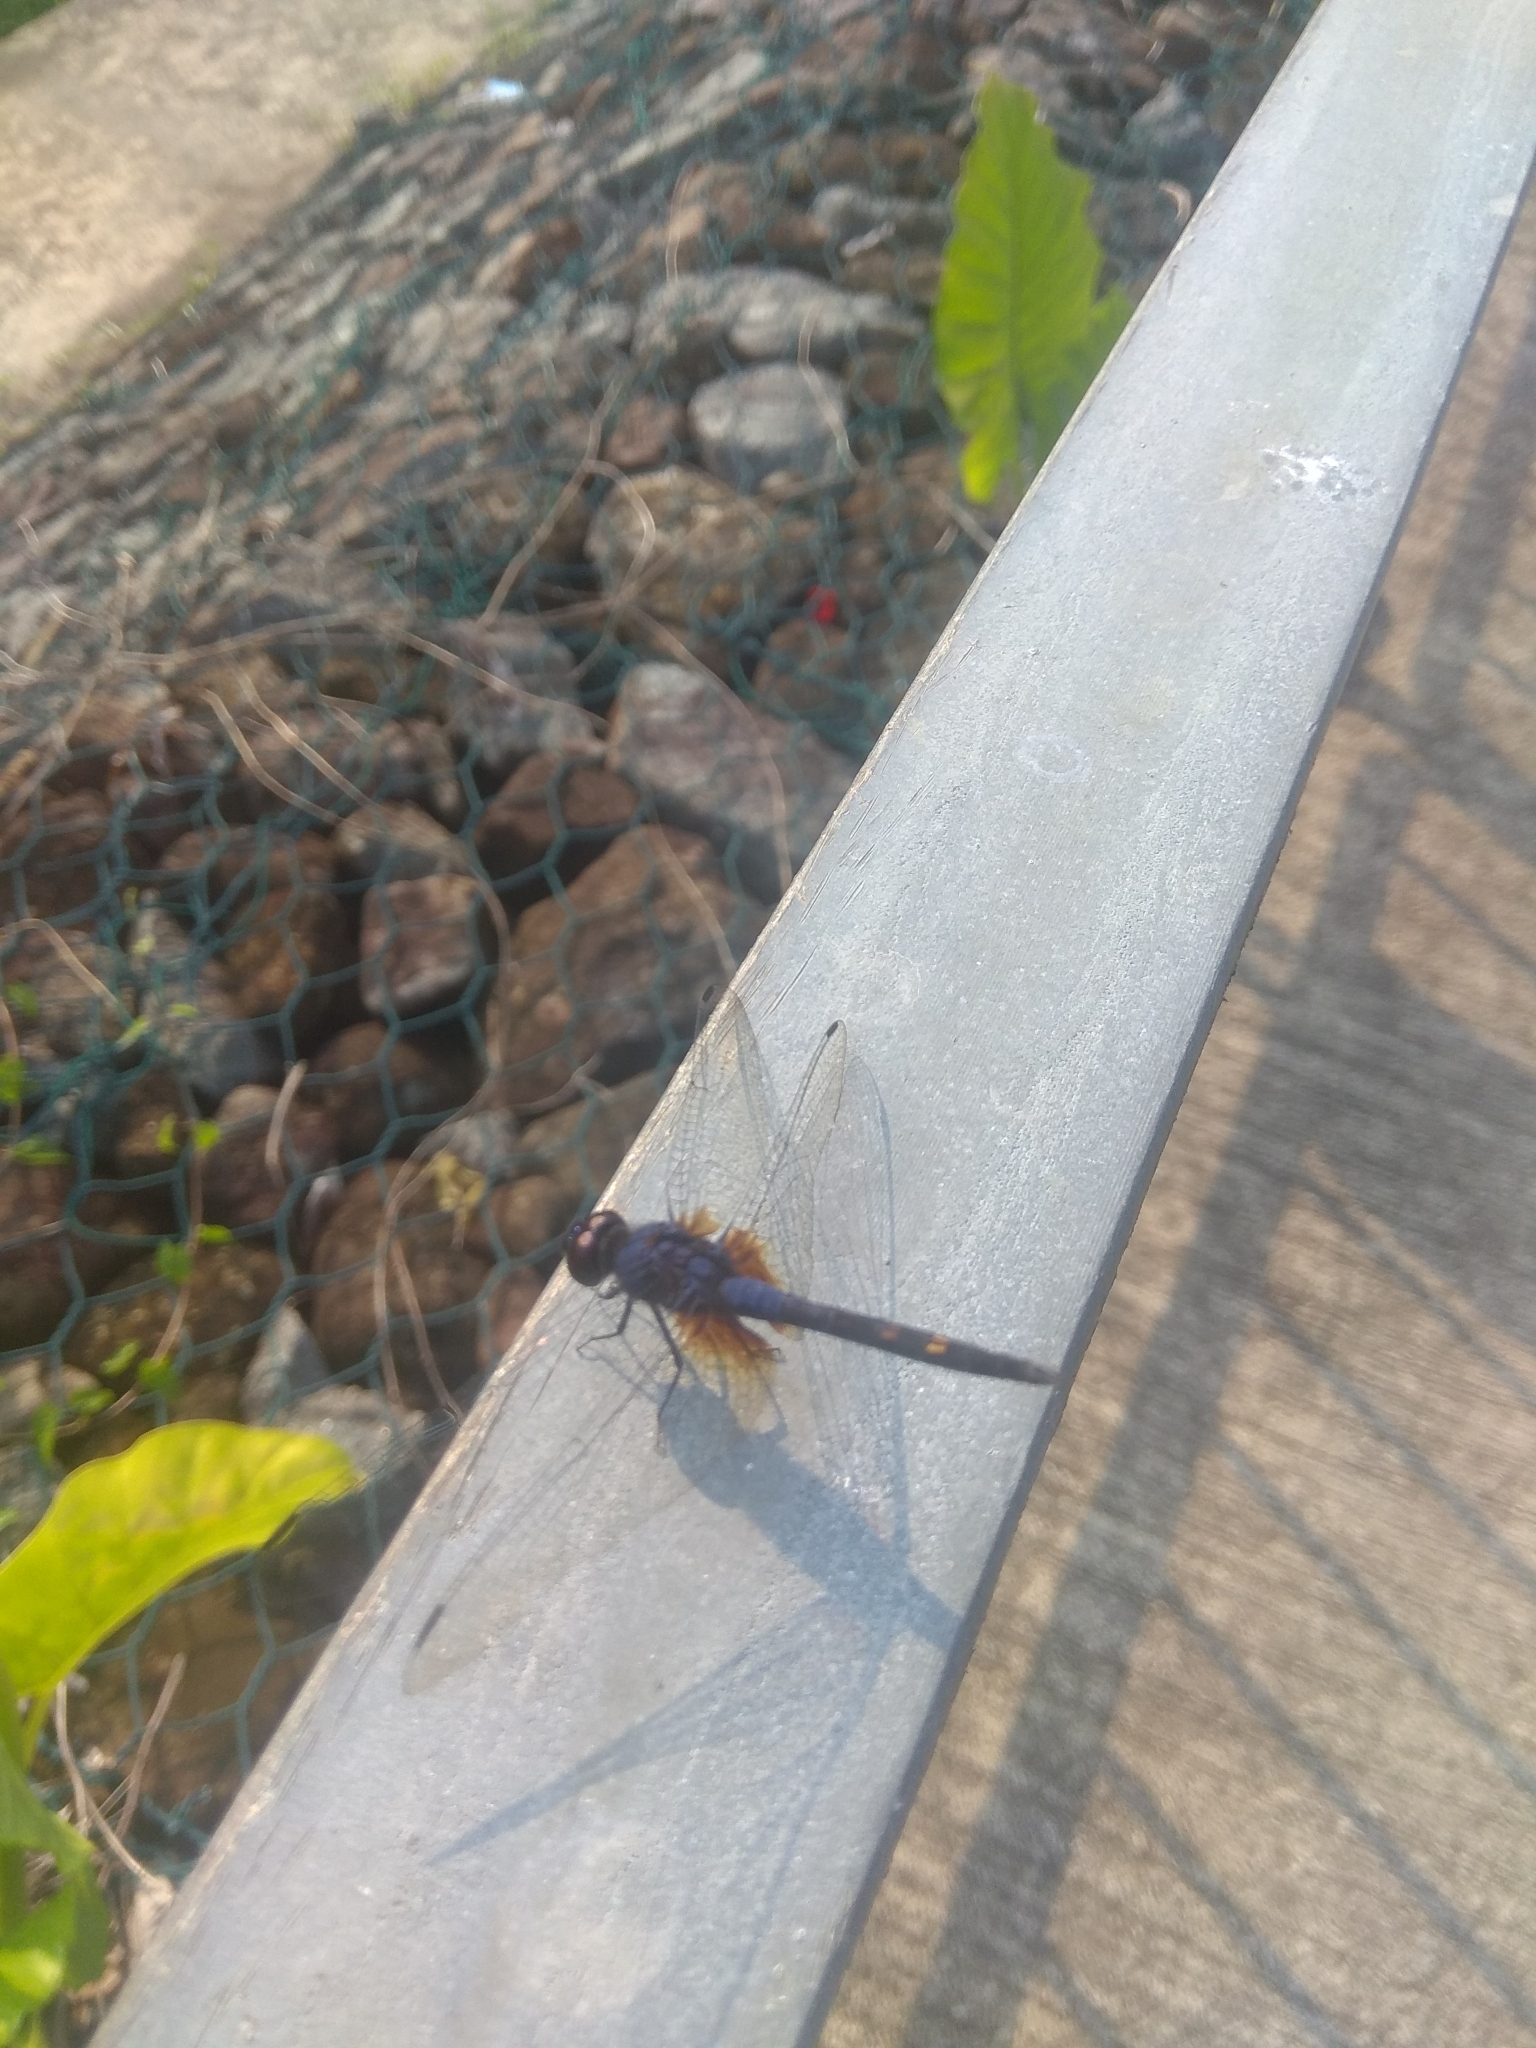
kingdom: Animalia
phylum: Arthropoda
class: Insecta
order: Odonata
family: Libellulidae
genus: Trithemis
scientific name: Trithemis festiva
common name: Indigo dropwing
